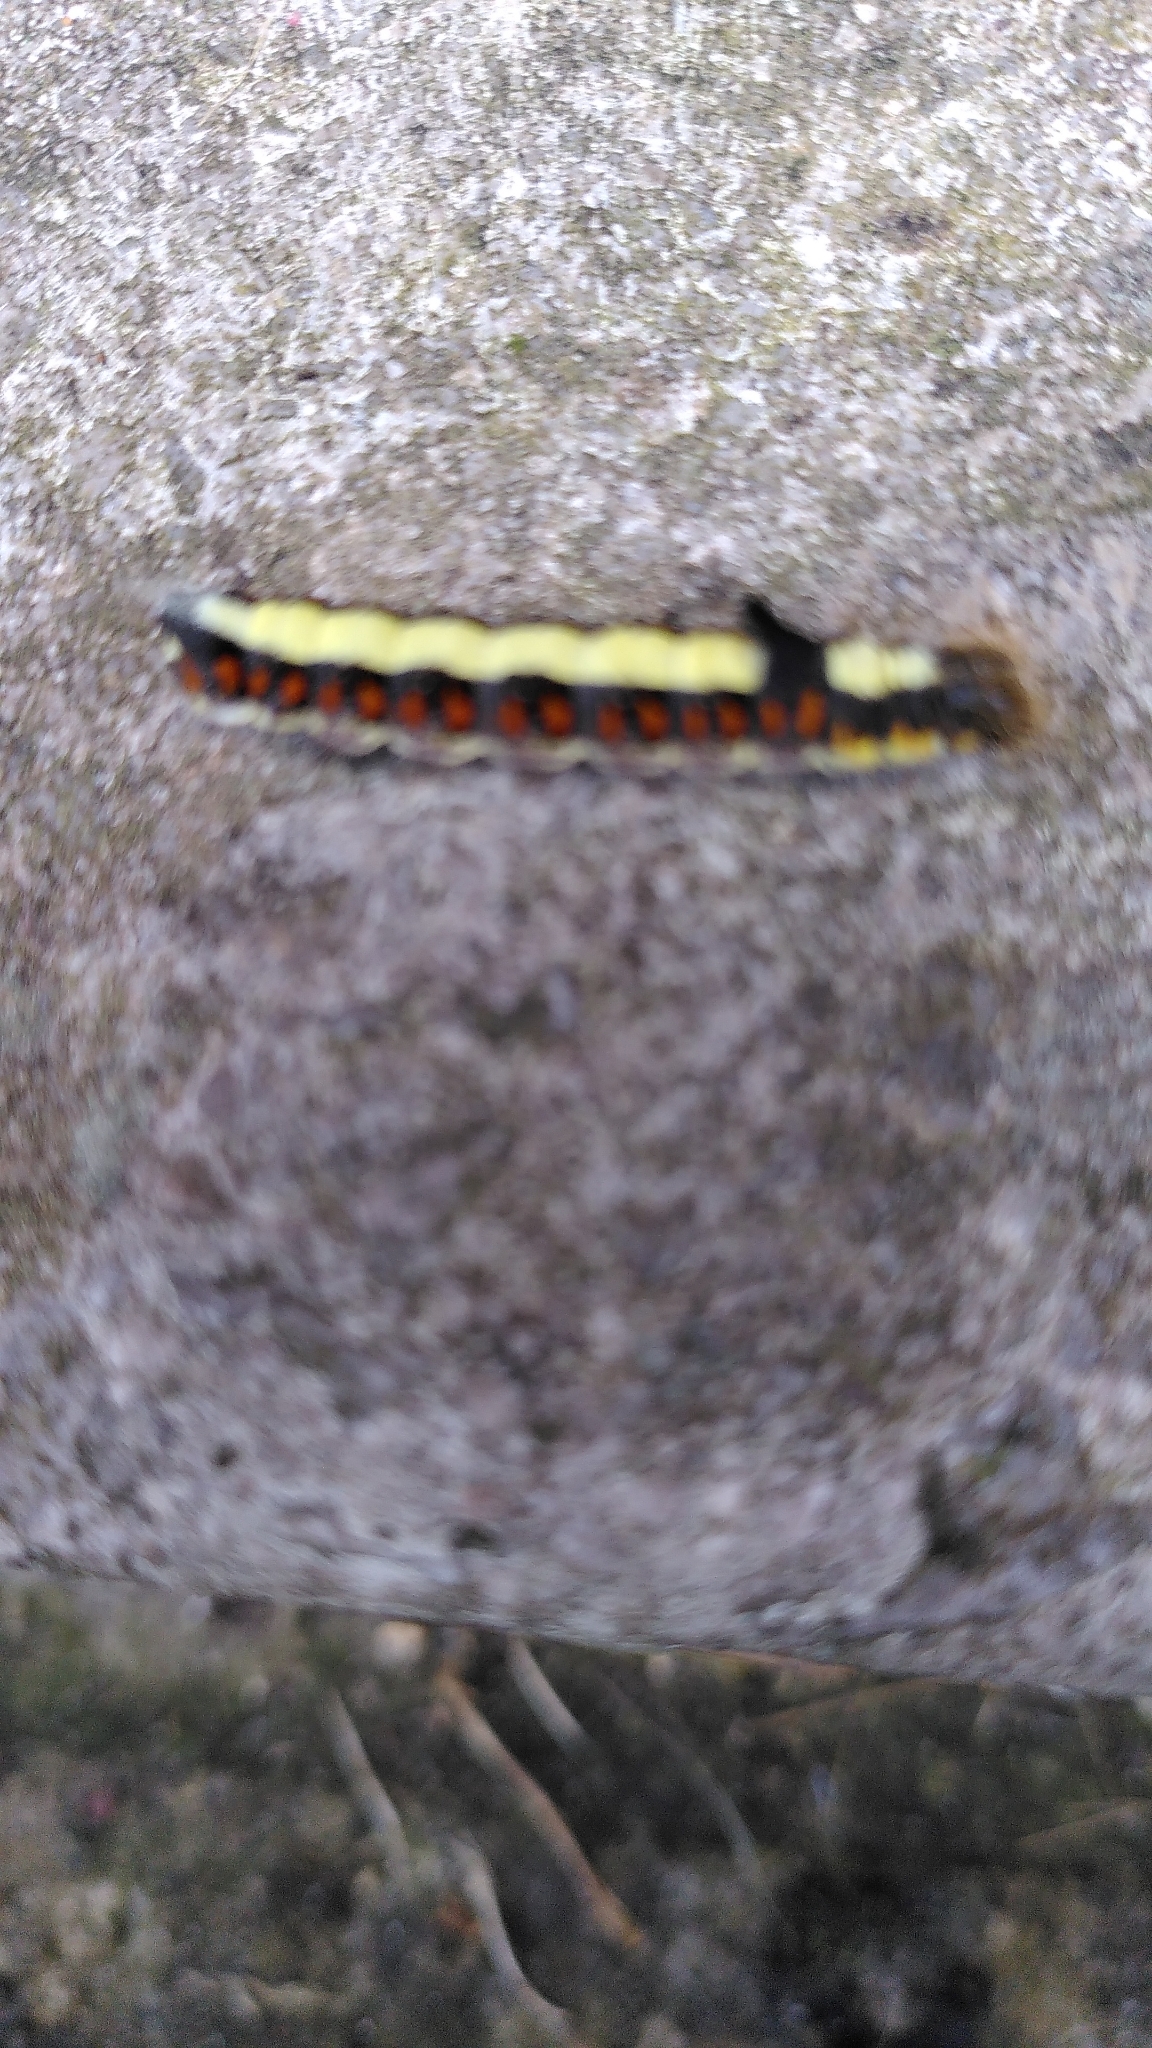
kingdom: Animalia
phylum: Arthropoda
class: Insecta
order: Lepidoptera
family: Noctuidae
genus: Acronicta
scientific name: Acronicta psi
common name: Grey dagger
